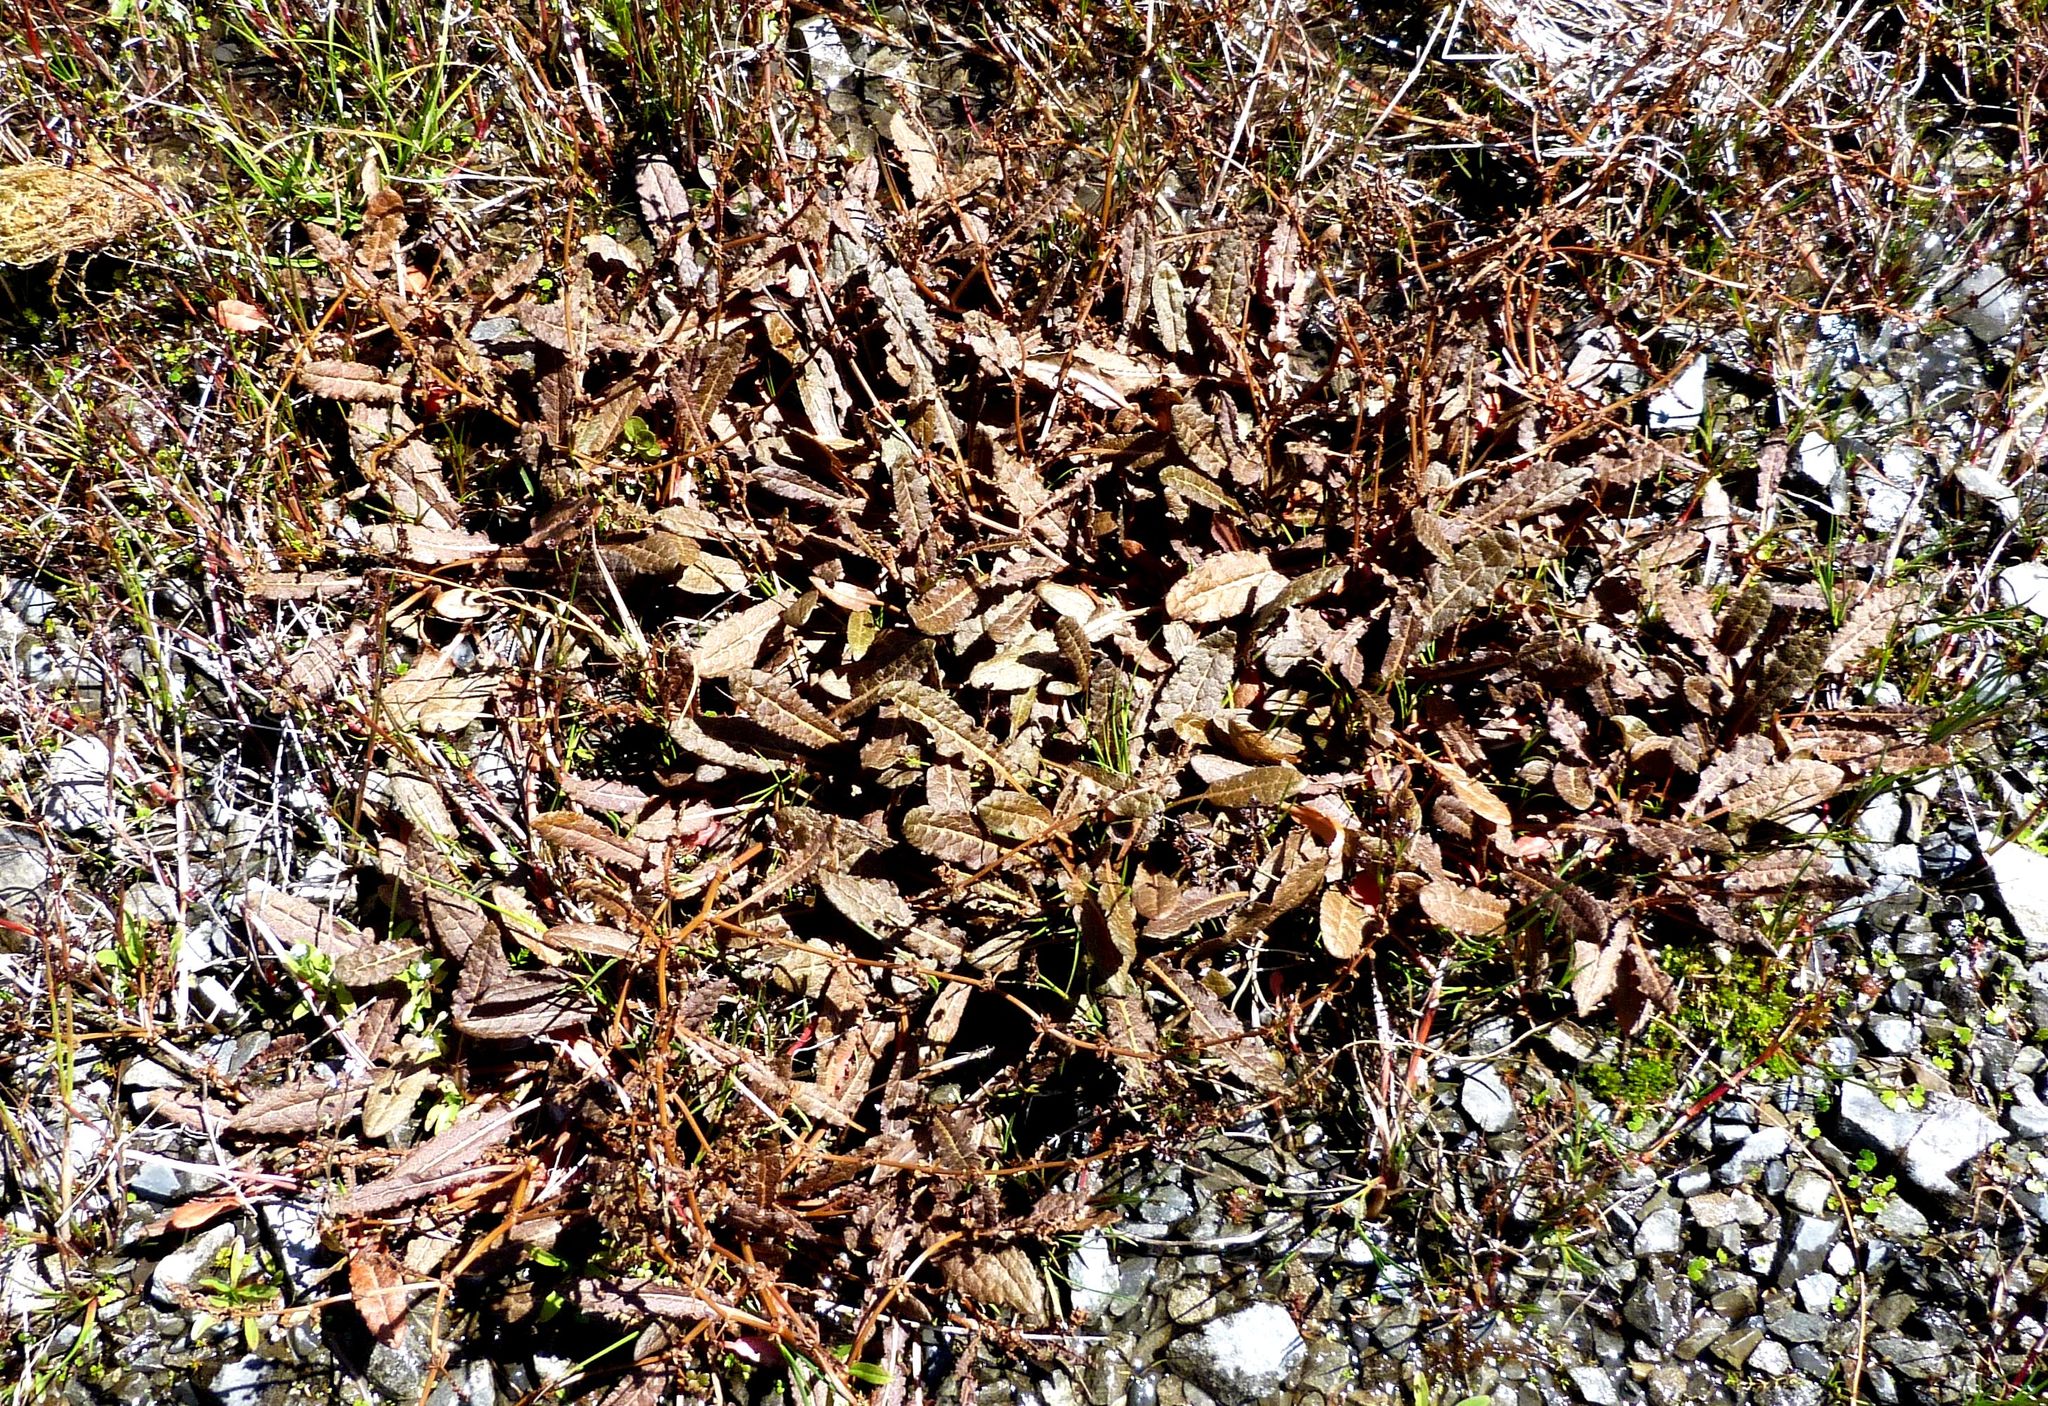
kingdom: Plantae
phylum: Tracheophyta
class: Magnoliopsida
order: Caryophyllales
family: Polygonaceae
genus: Rumex
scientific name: Rumex flexuosus
